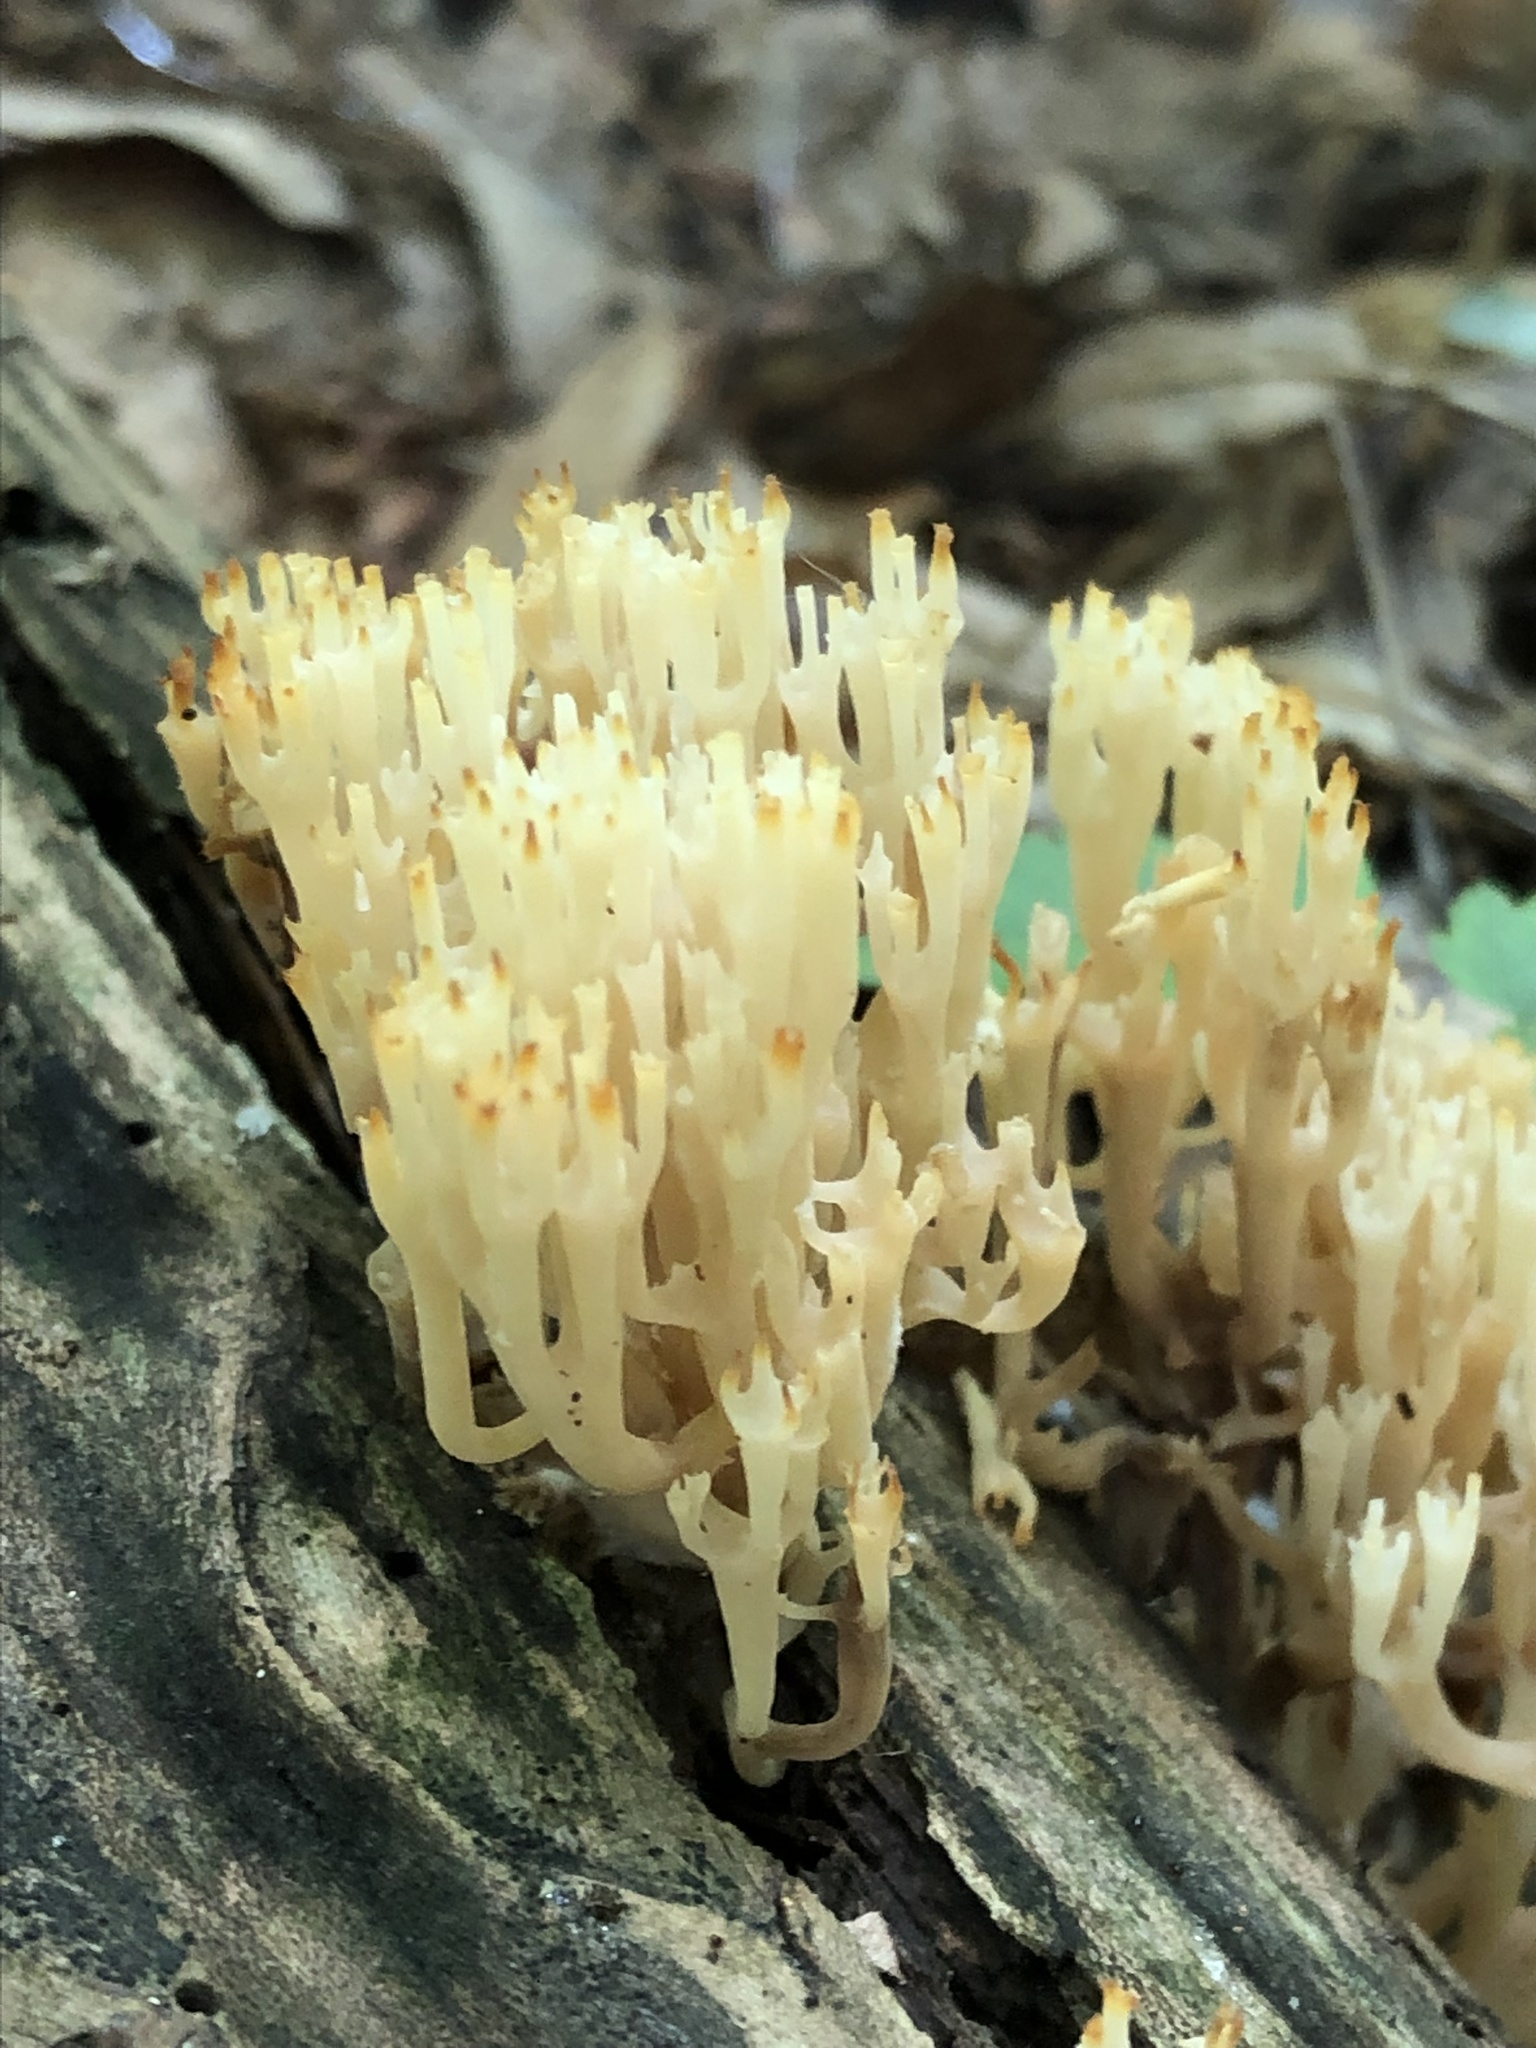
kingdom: Fungi
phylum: Basidiomycota
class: Agaricomycetes
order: Russulales
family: Auriscalpiaceae
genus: Artomyces
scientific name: Artomyces pyxidatus
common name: Crown-tipped coral fungus
